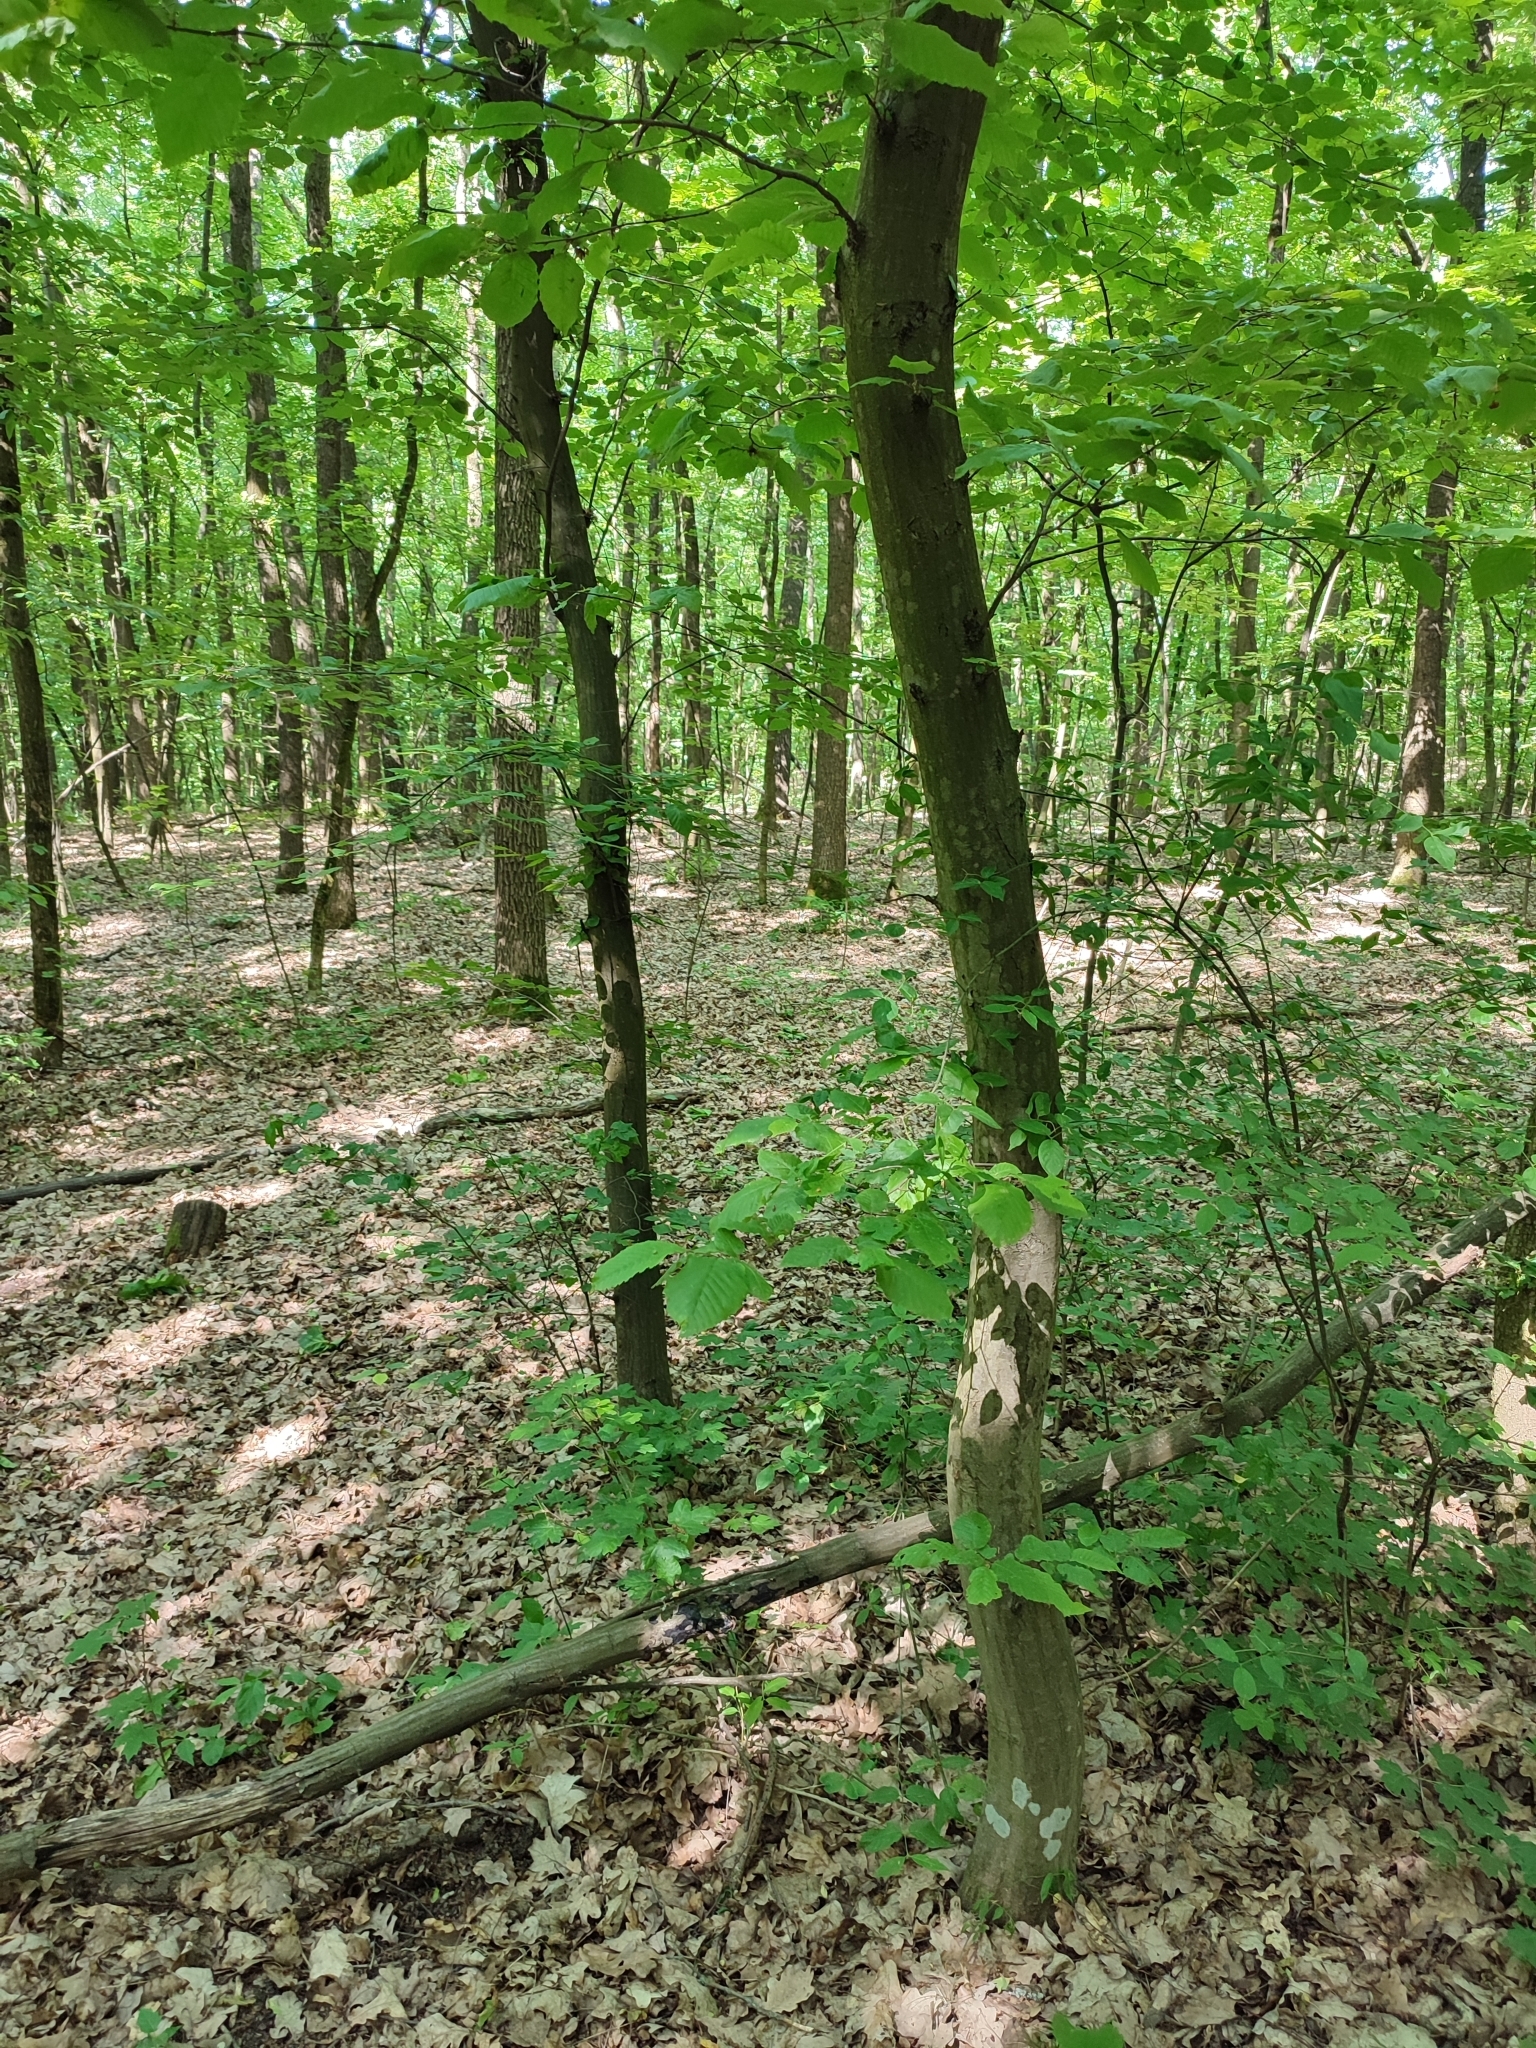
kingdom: Plantae
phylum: Tracheophyta
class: Magnoliopsida
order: Fagales
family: Betulaceae
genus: Carpinus
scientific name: Carpinus betulus
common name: Hornbeam
